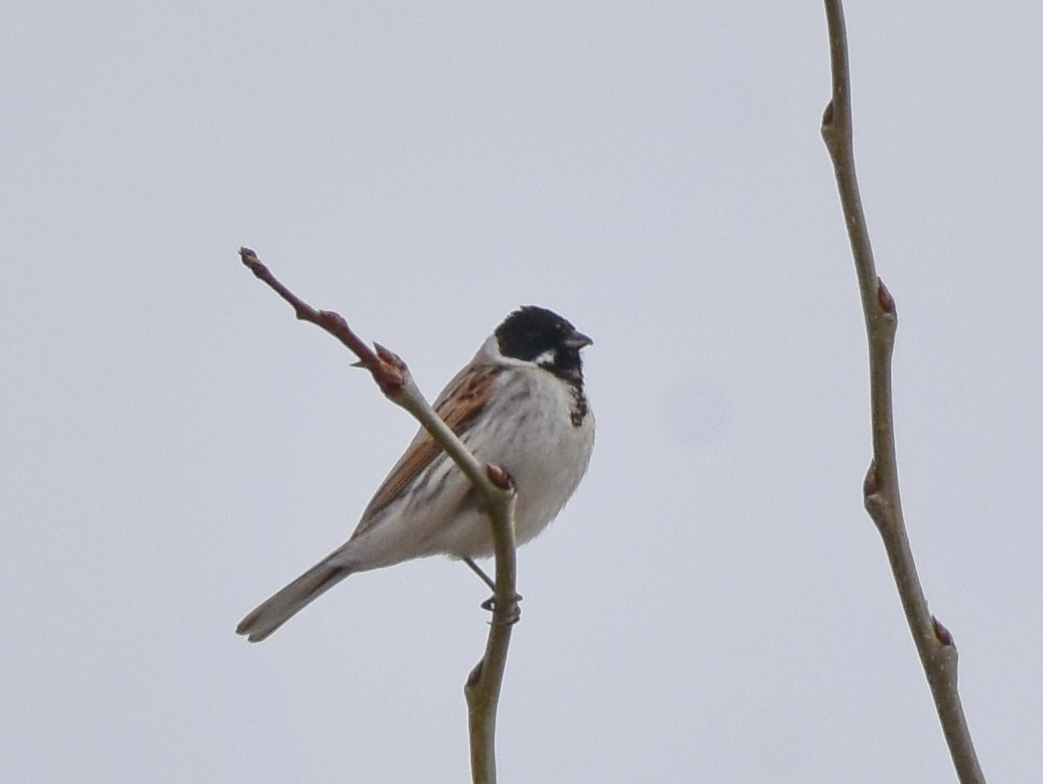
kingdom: Animalia
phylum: Chordata
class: Aves
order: Passeriformes
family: Emberizidae
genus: Emberiza
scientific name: Emberiza schoeniclus
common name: Reed bunting
